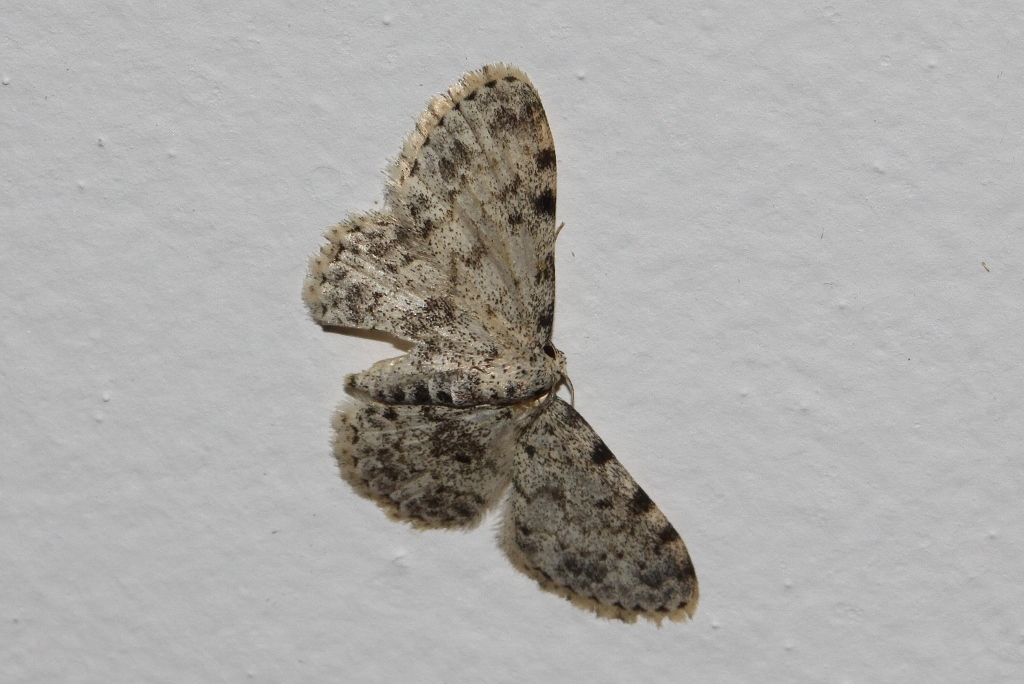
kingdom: Animalia
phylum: Arthropoda
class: Insecta
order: Lepidoptera
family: Geometridae
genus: Scopula
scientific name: Scopula nigrinotata
